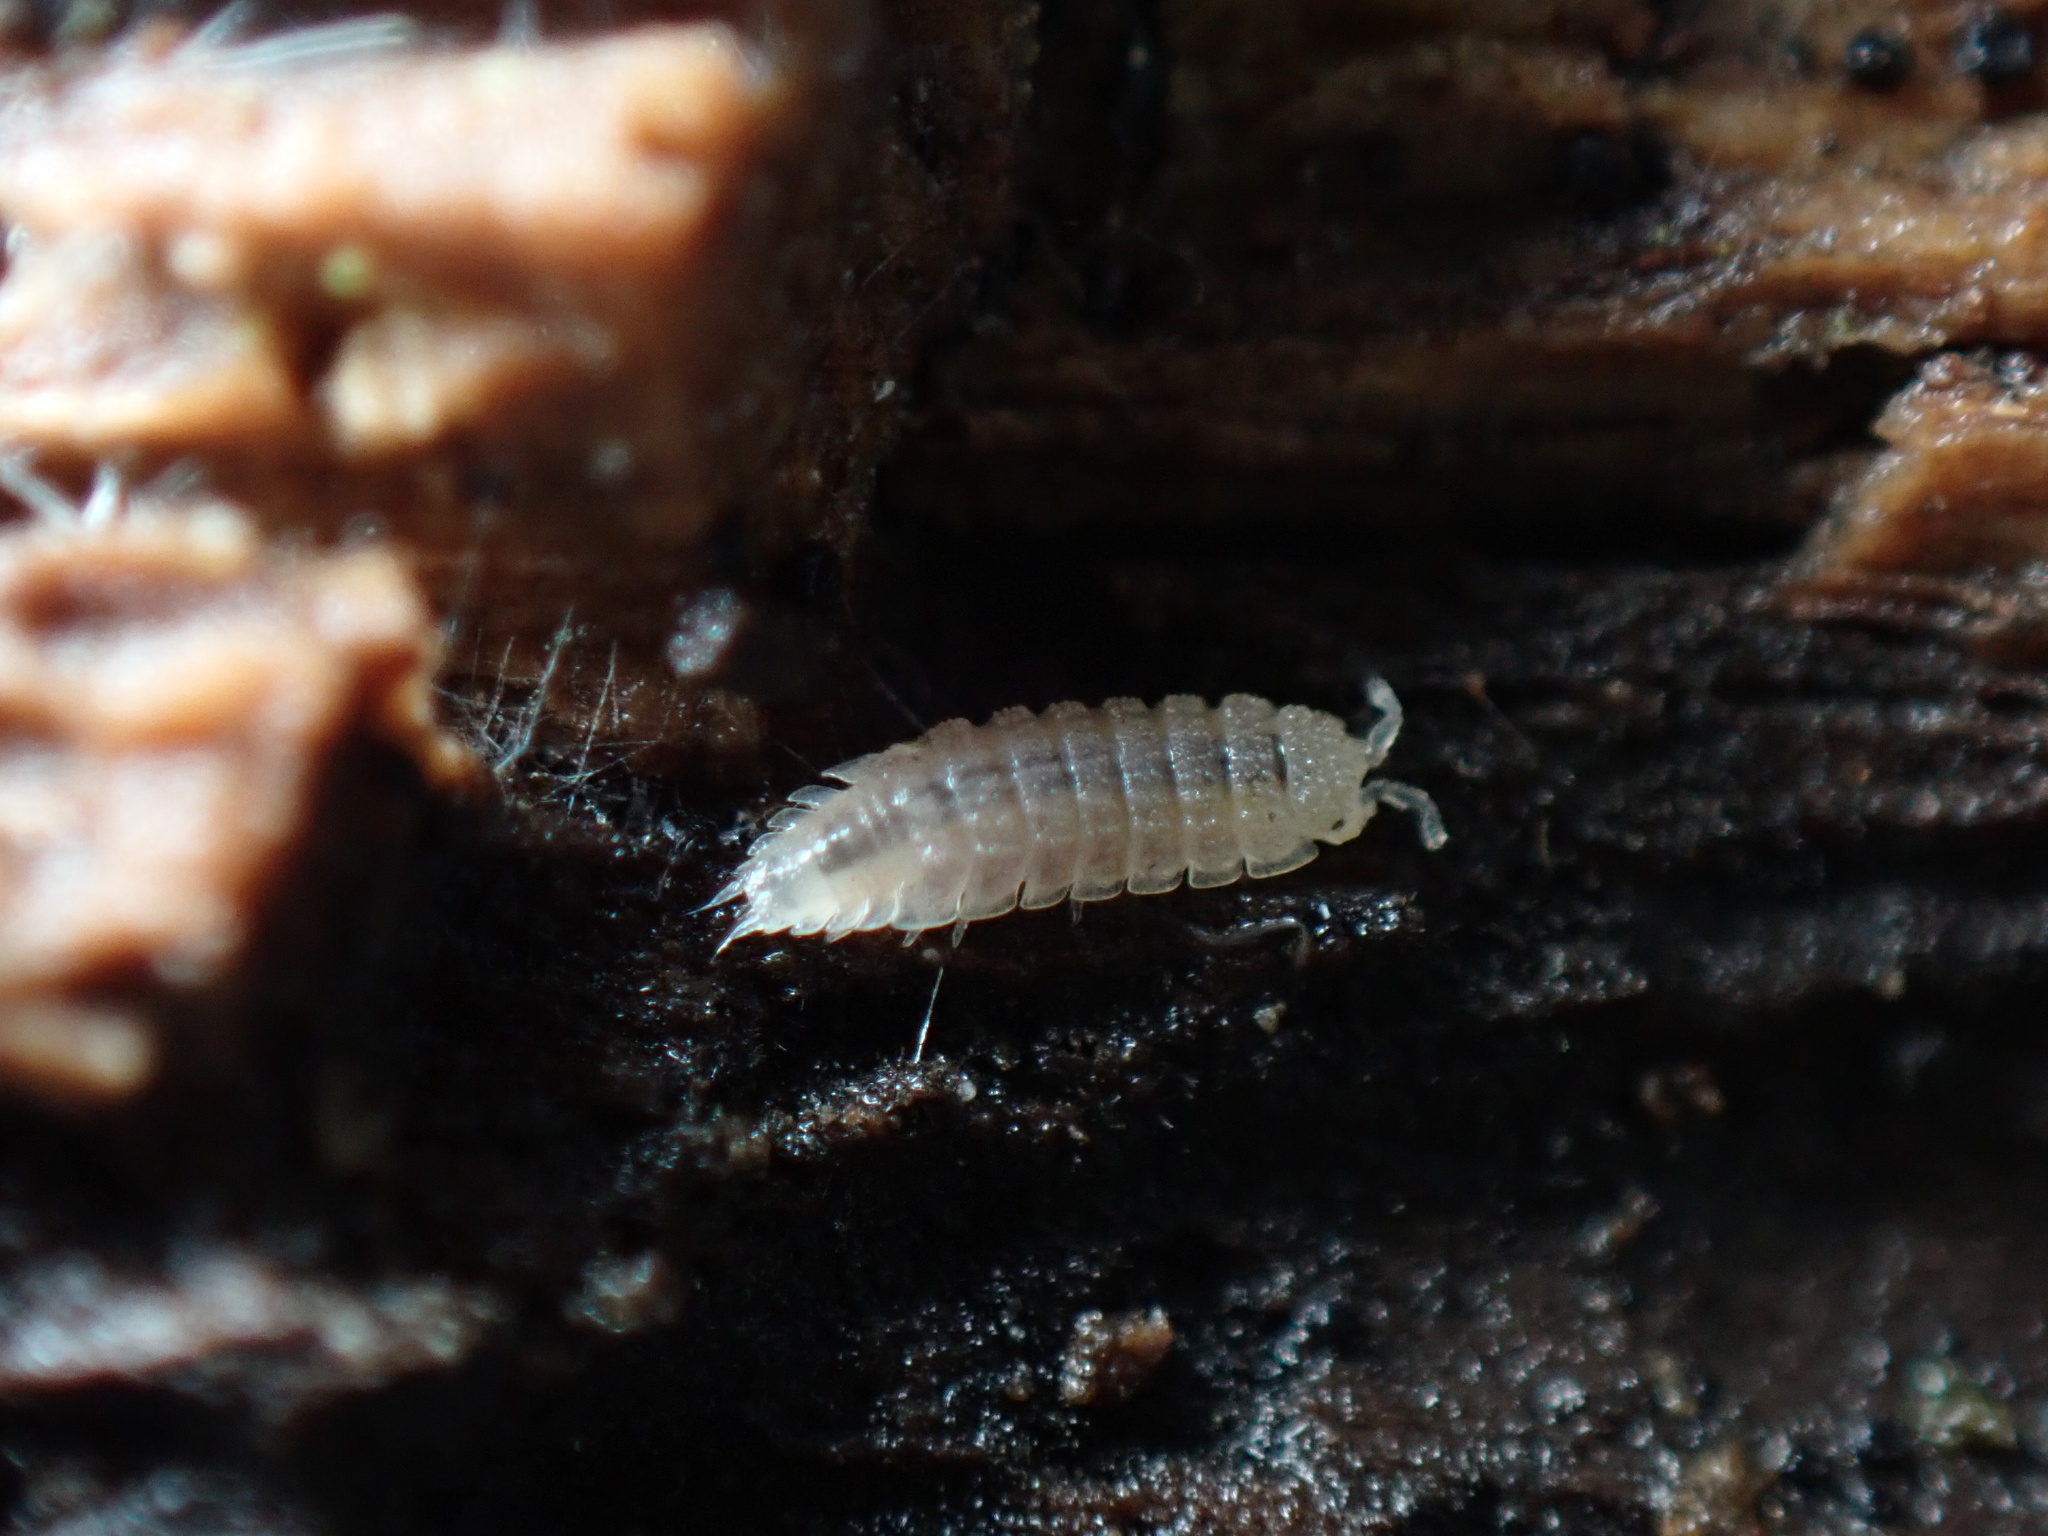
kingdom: Animalia
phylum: Arthropoda
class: Malacostraca
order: Isopoda
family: Trichoniscidae
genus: Haplophthalmus
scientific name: Haplophthalmus danicus
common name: Pillbug
